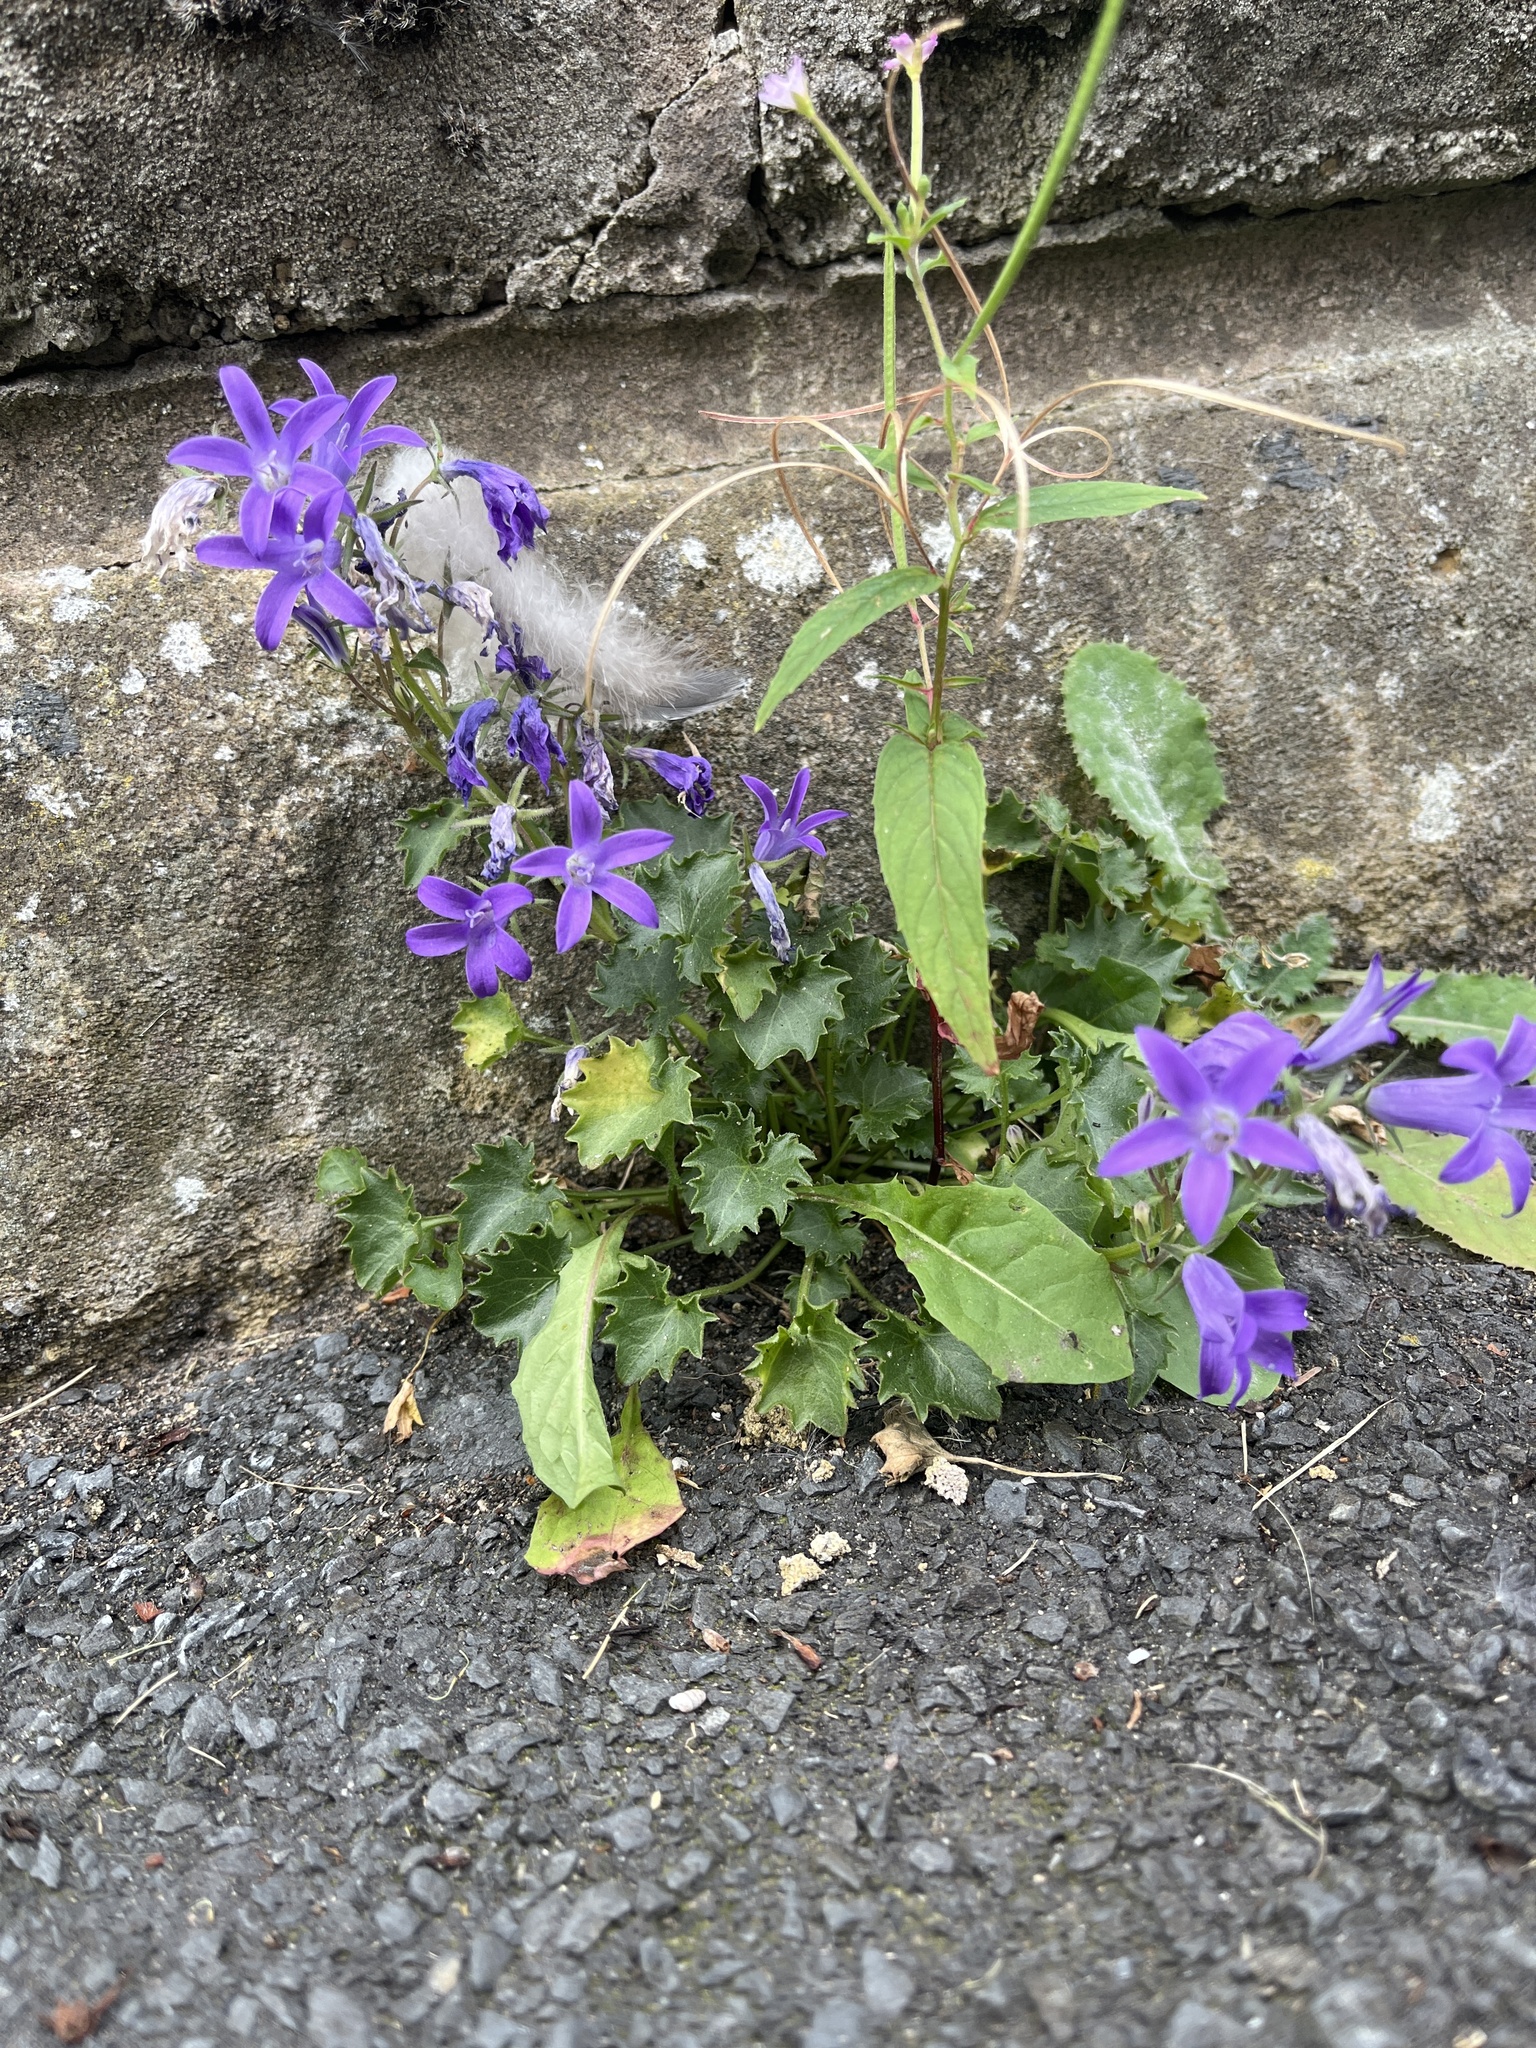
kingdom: Plantae
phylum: Tracheophyta
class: Magnoliopsida
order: Asterales
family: Campanulaceae
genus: Campanula
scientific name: Campanula poscharskyana
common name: Trailing bellflower
